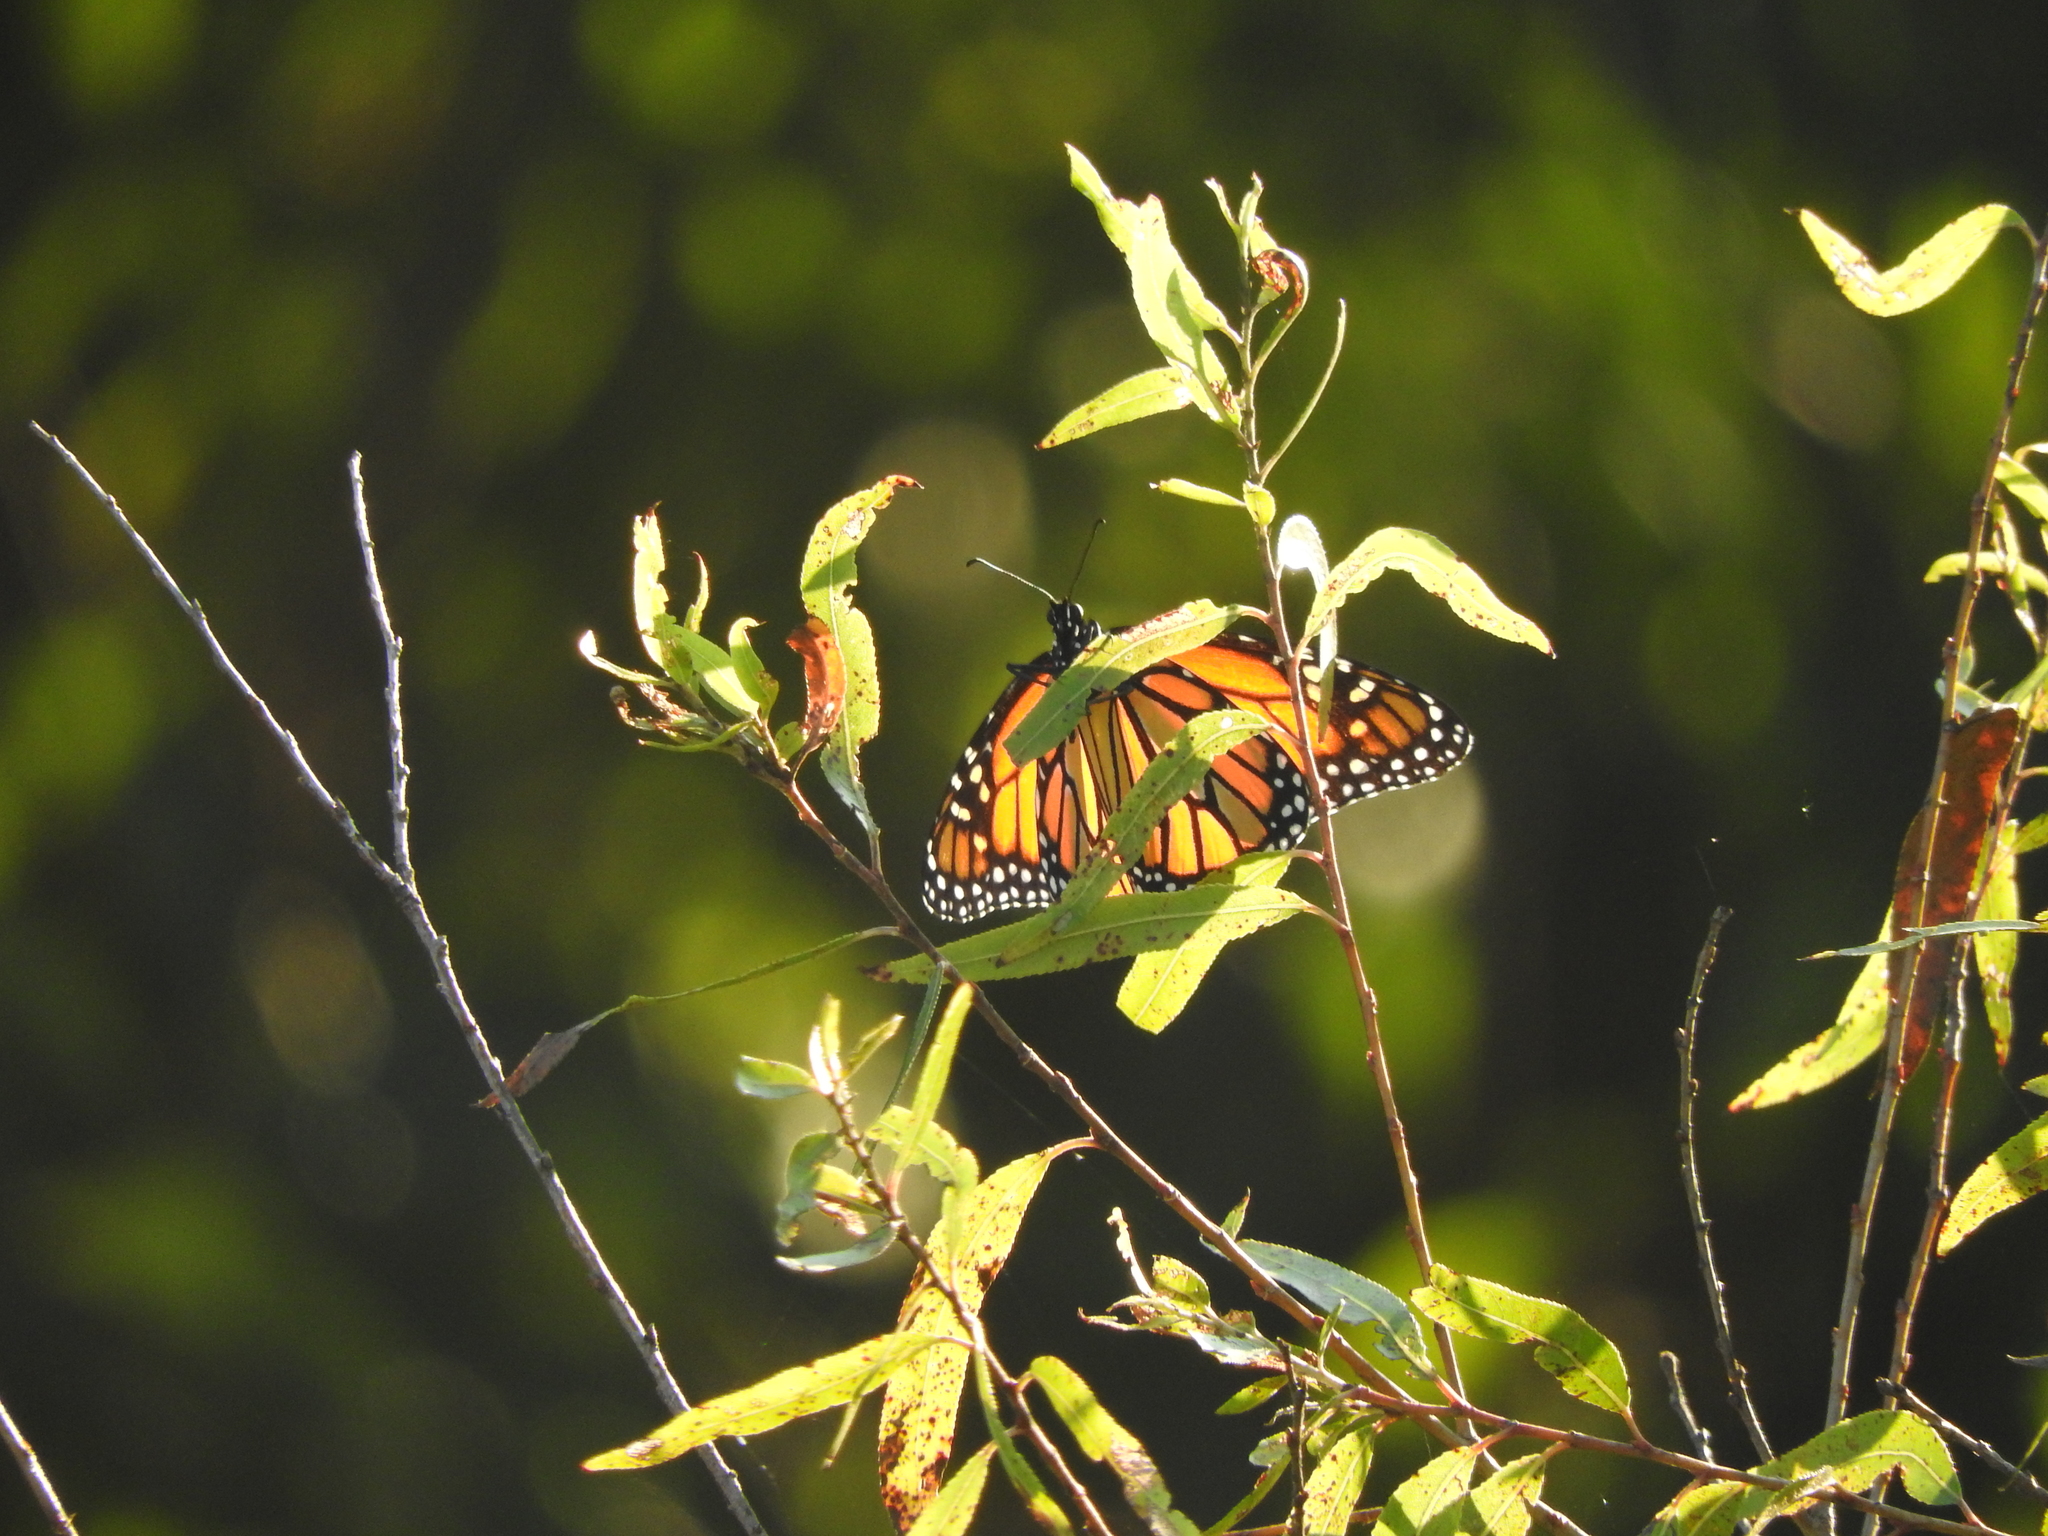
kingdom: Animalia
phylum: Arthropoda
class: Insecta
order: Lepidoptera
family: Nymphalidae
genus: Danaus
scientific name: Danaus plexippus
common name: Monarch
